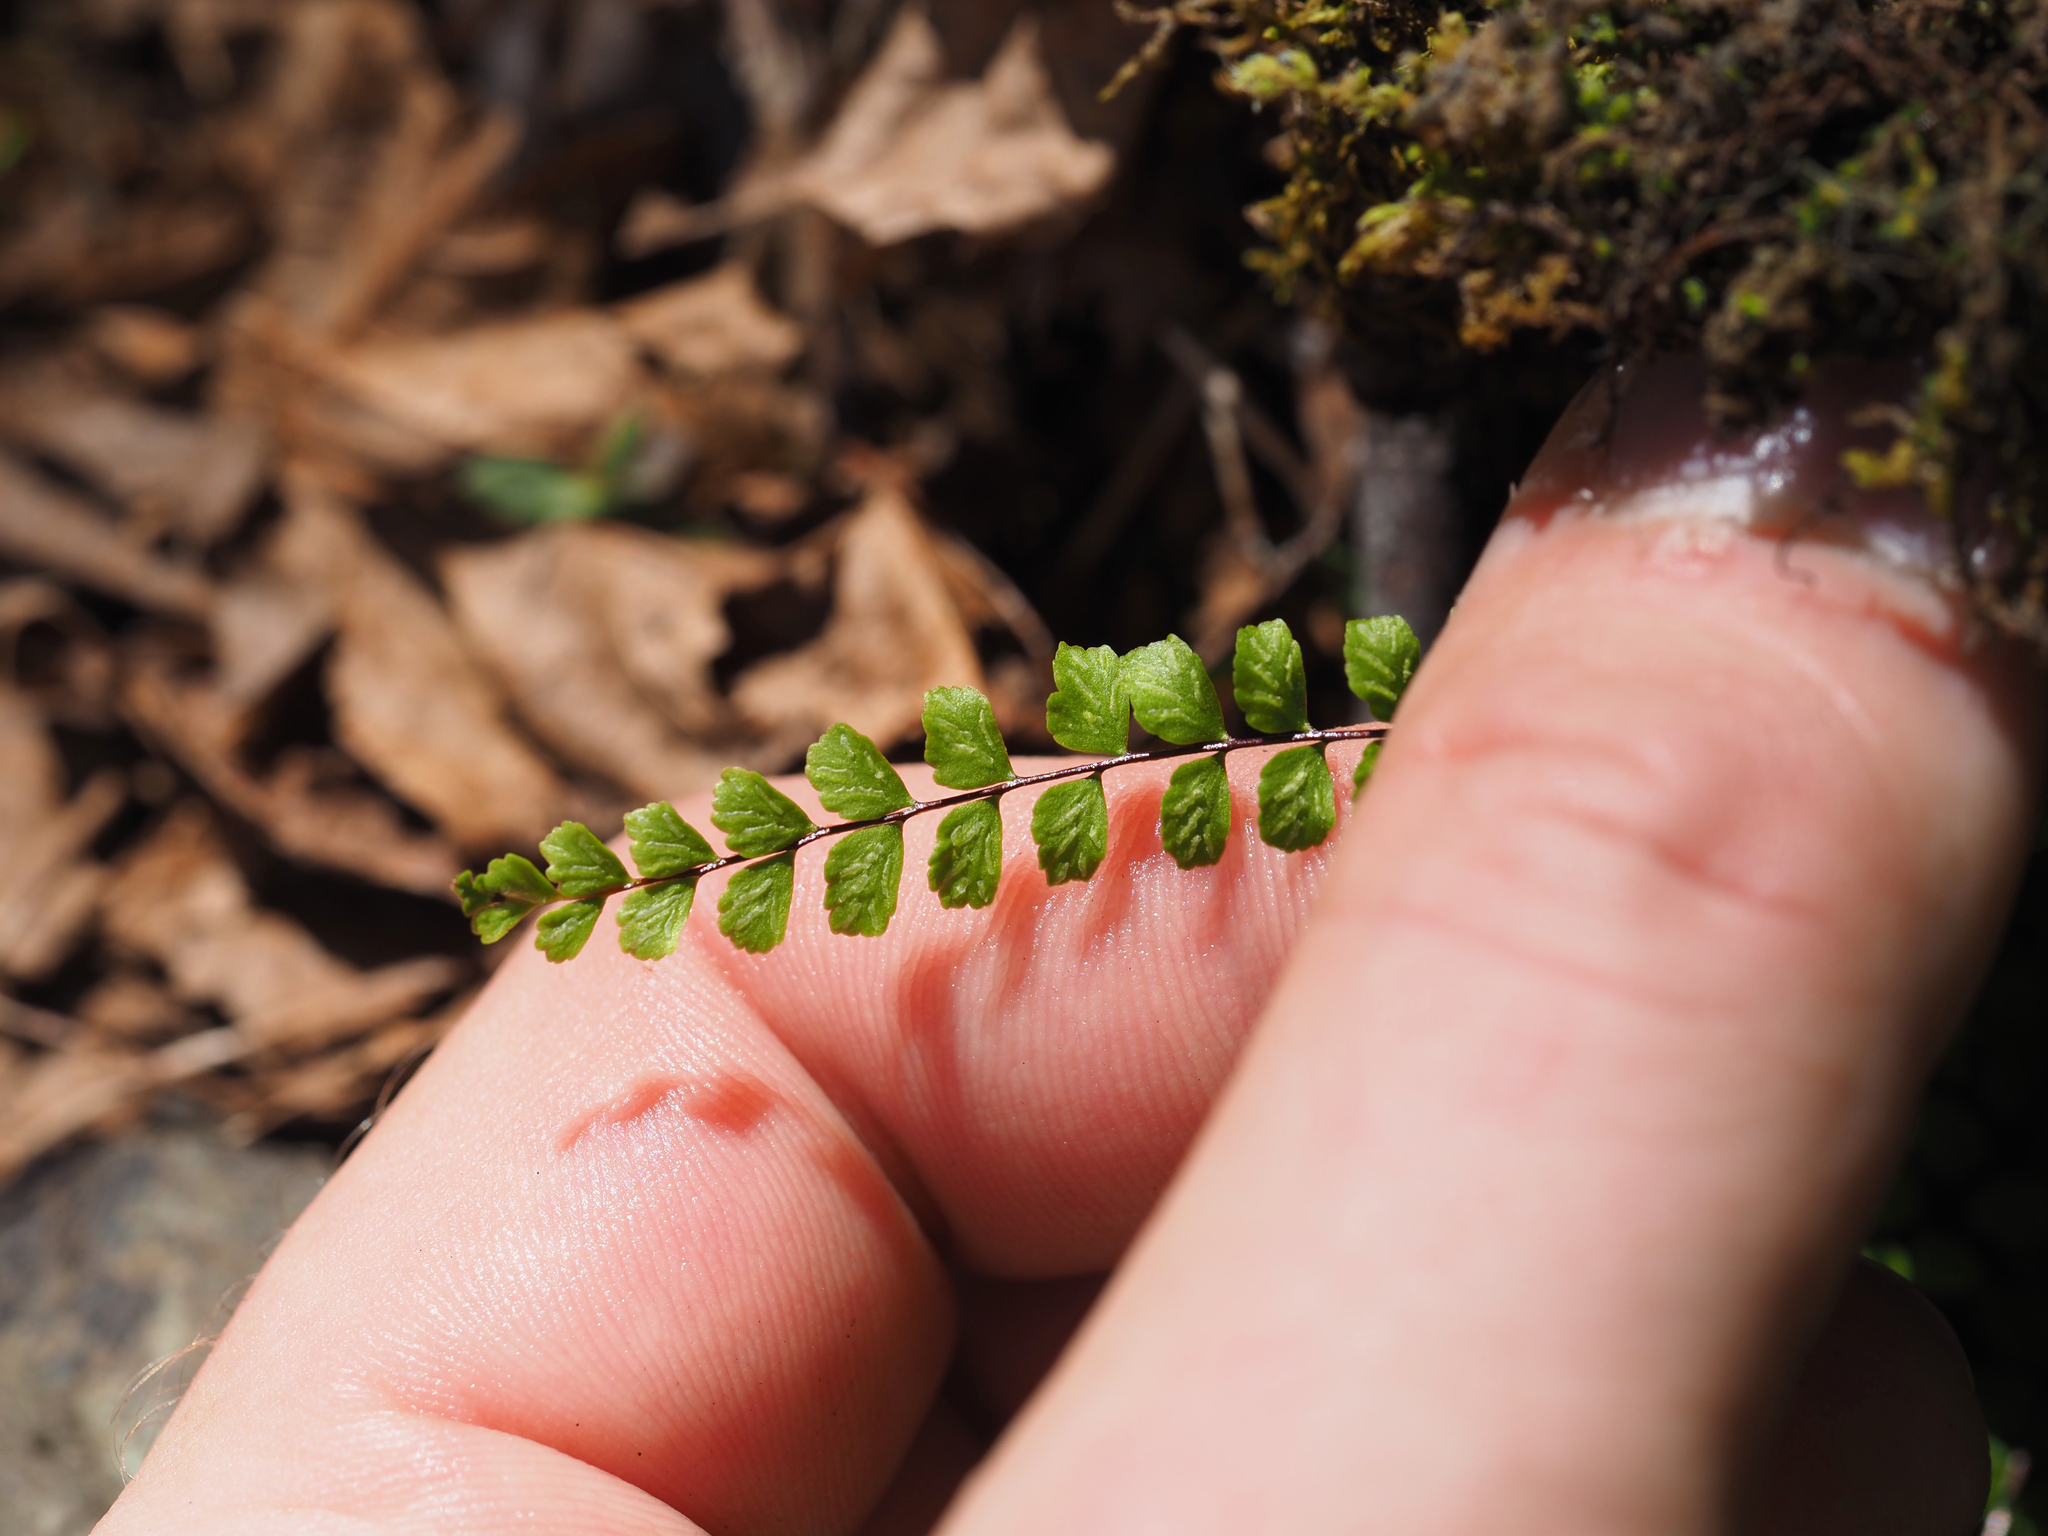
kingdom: Plantae
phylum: Tracheophyta
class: Polypodiopsida
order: Polypodiales
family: Aspleniaceae
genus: Asplenium
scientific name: Asplenium trichomanes
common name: Maidenhair spleenwort
